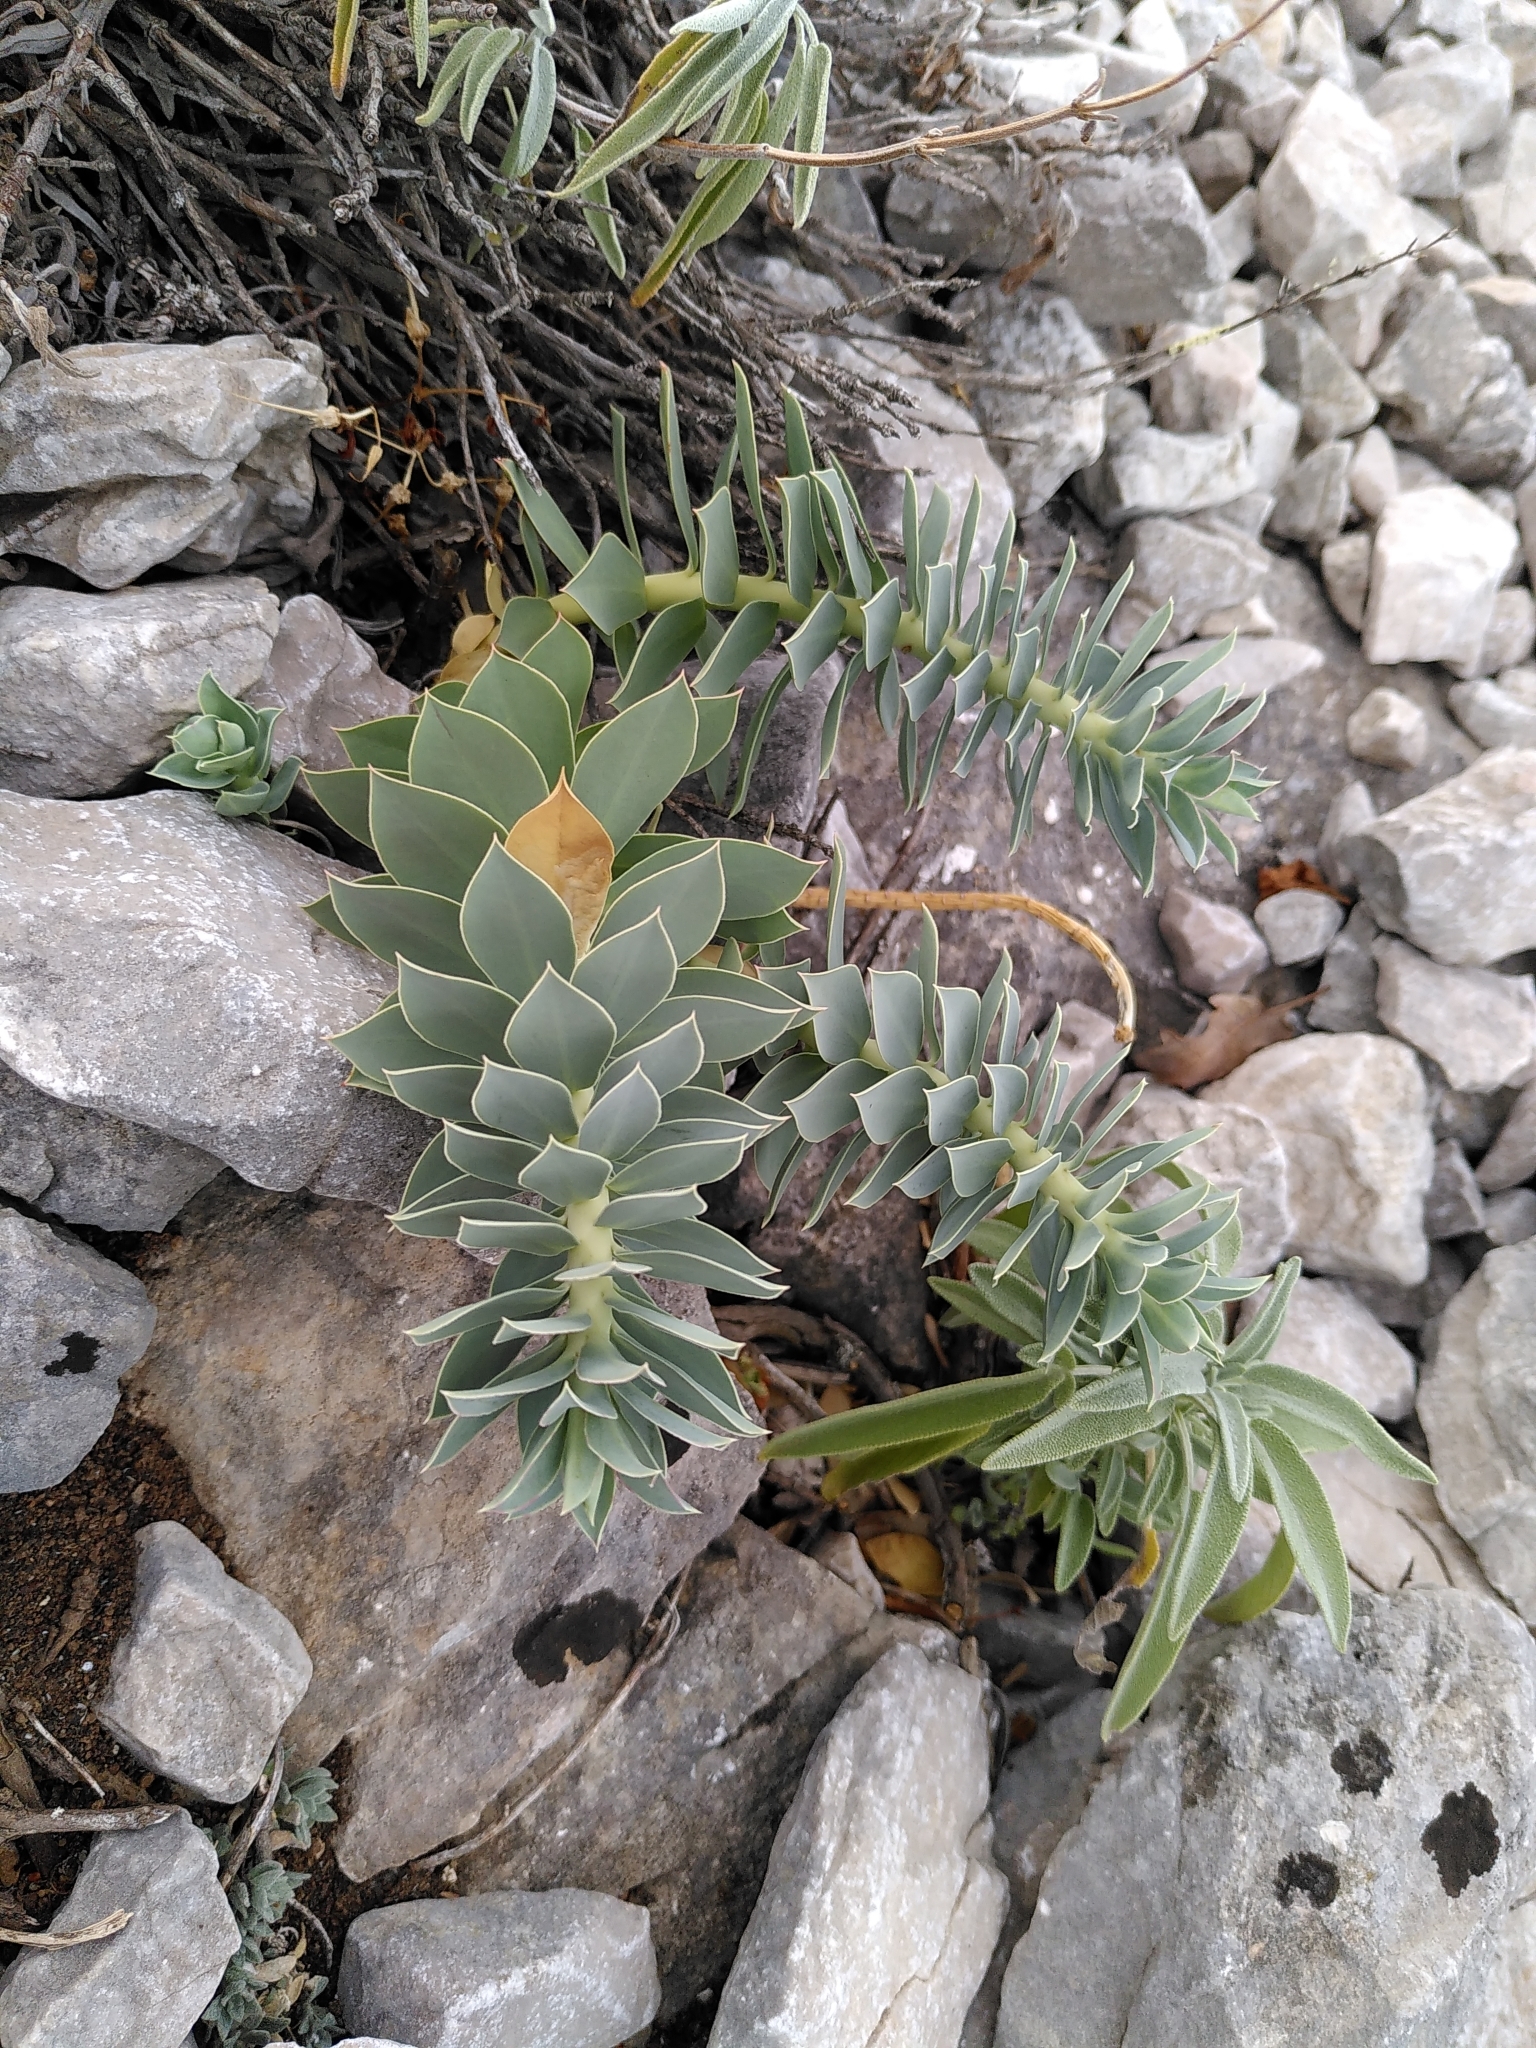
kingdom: Plantae
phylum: Tracheophyta
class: Magnoliopsida
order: Malpighiales
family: Euphorbiaceae
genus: Euphorbia
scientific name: Euphorbia myrsinites
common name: Myrtle spurge
